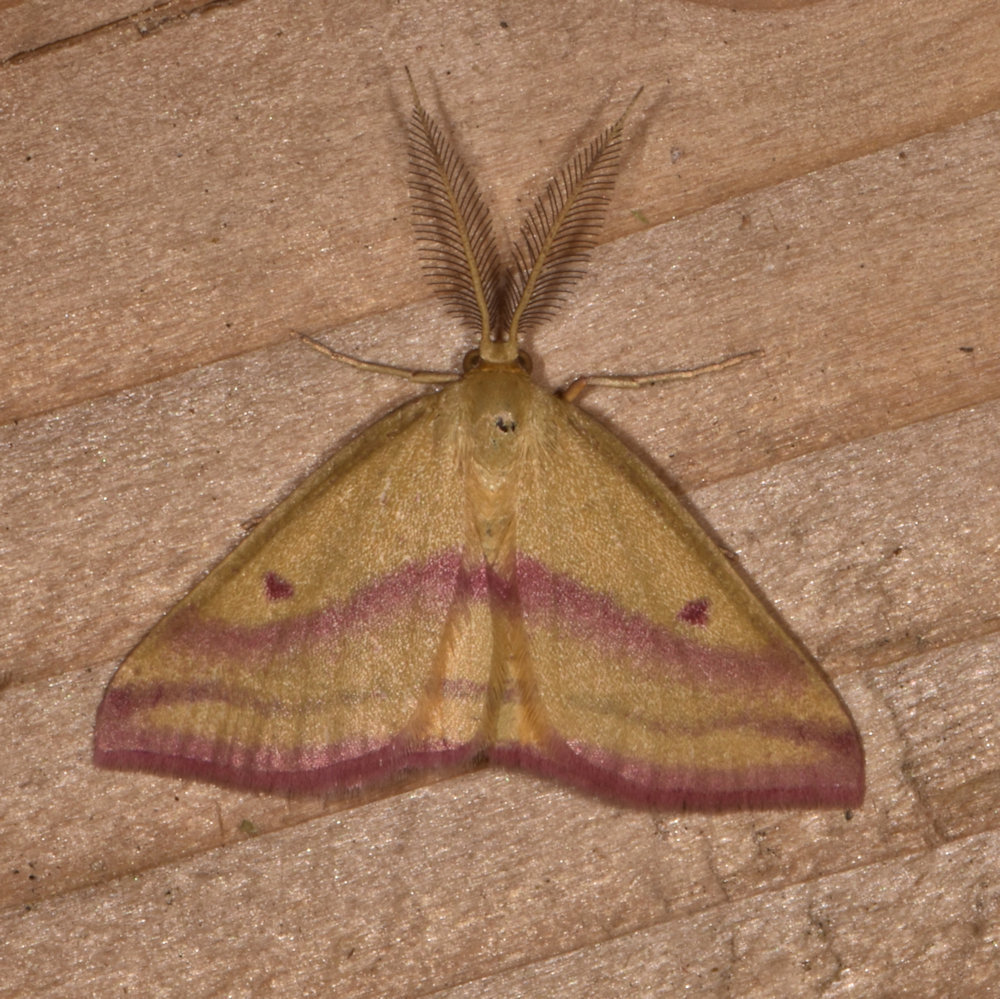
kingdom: Animalia
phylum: Arthropoda
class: Insecta
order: Lepidoptera
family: Geometridae
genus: Haematopis
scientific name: Haematopis grataria
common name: Chickweed geometer
